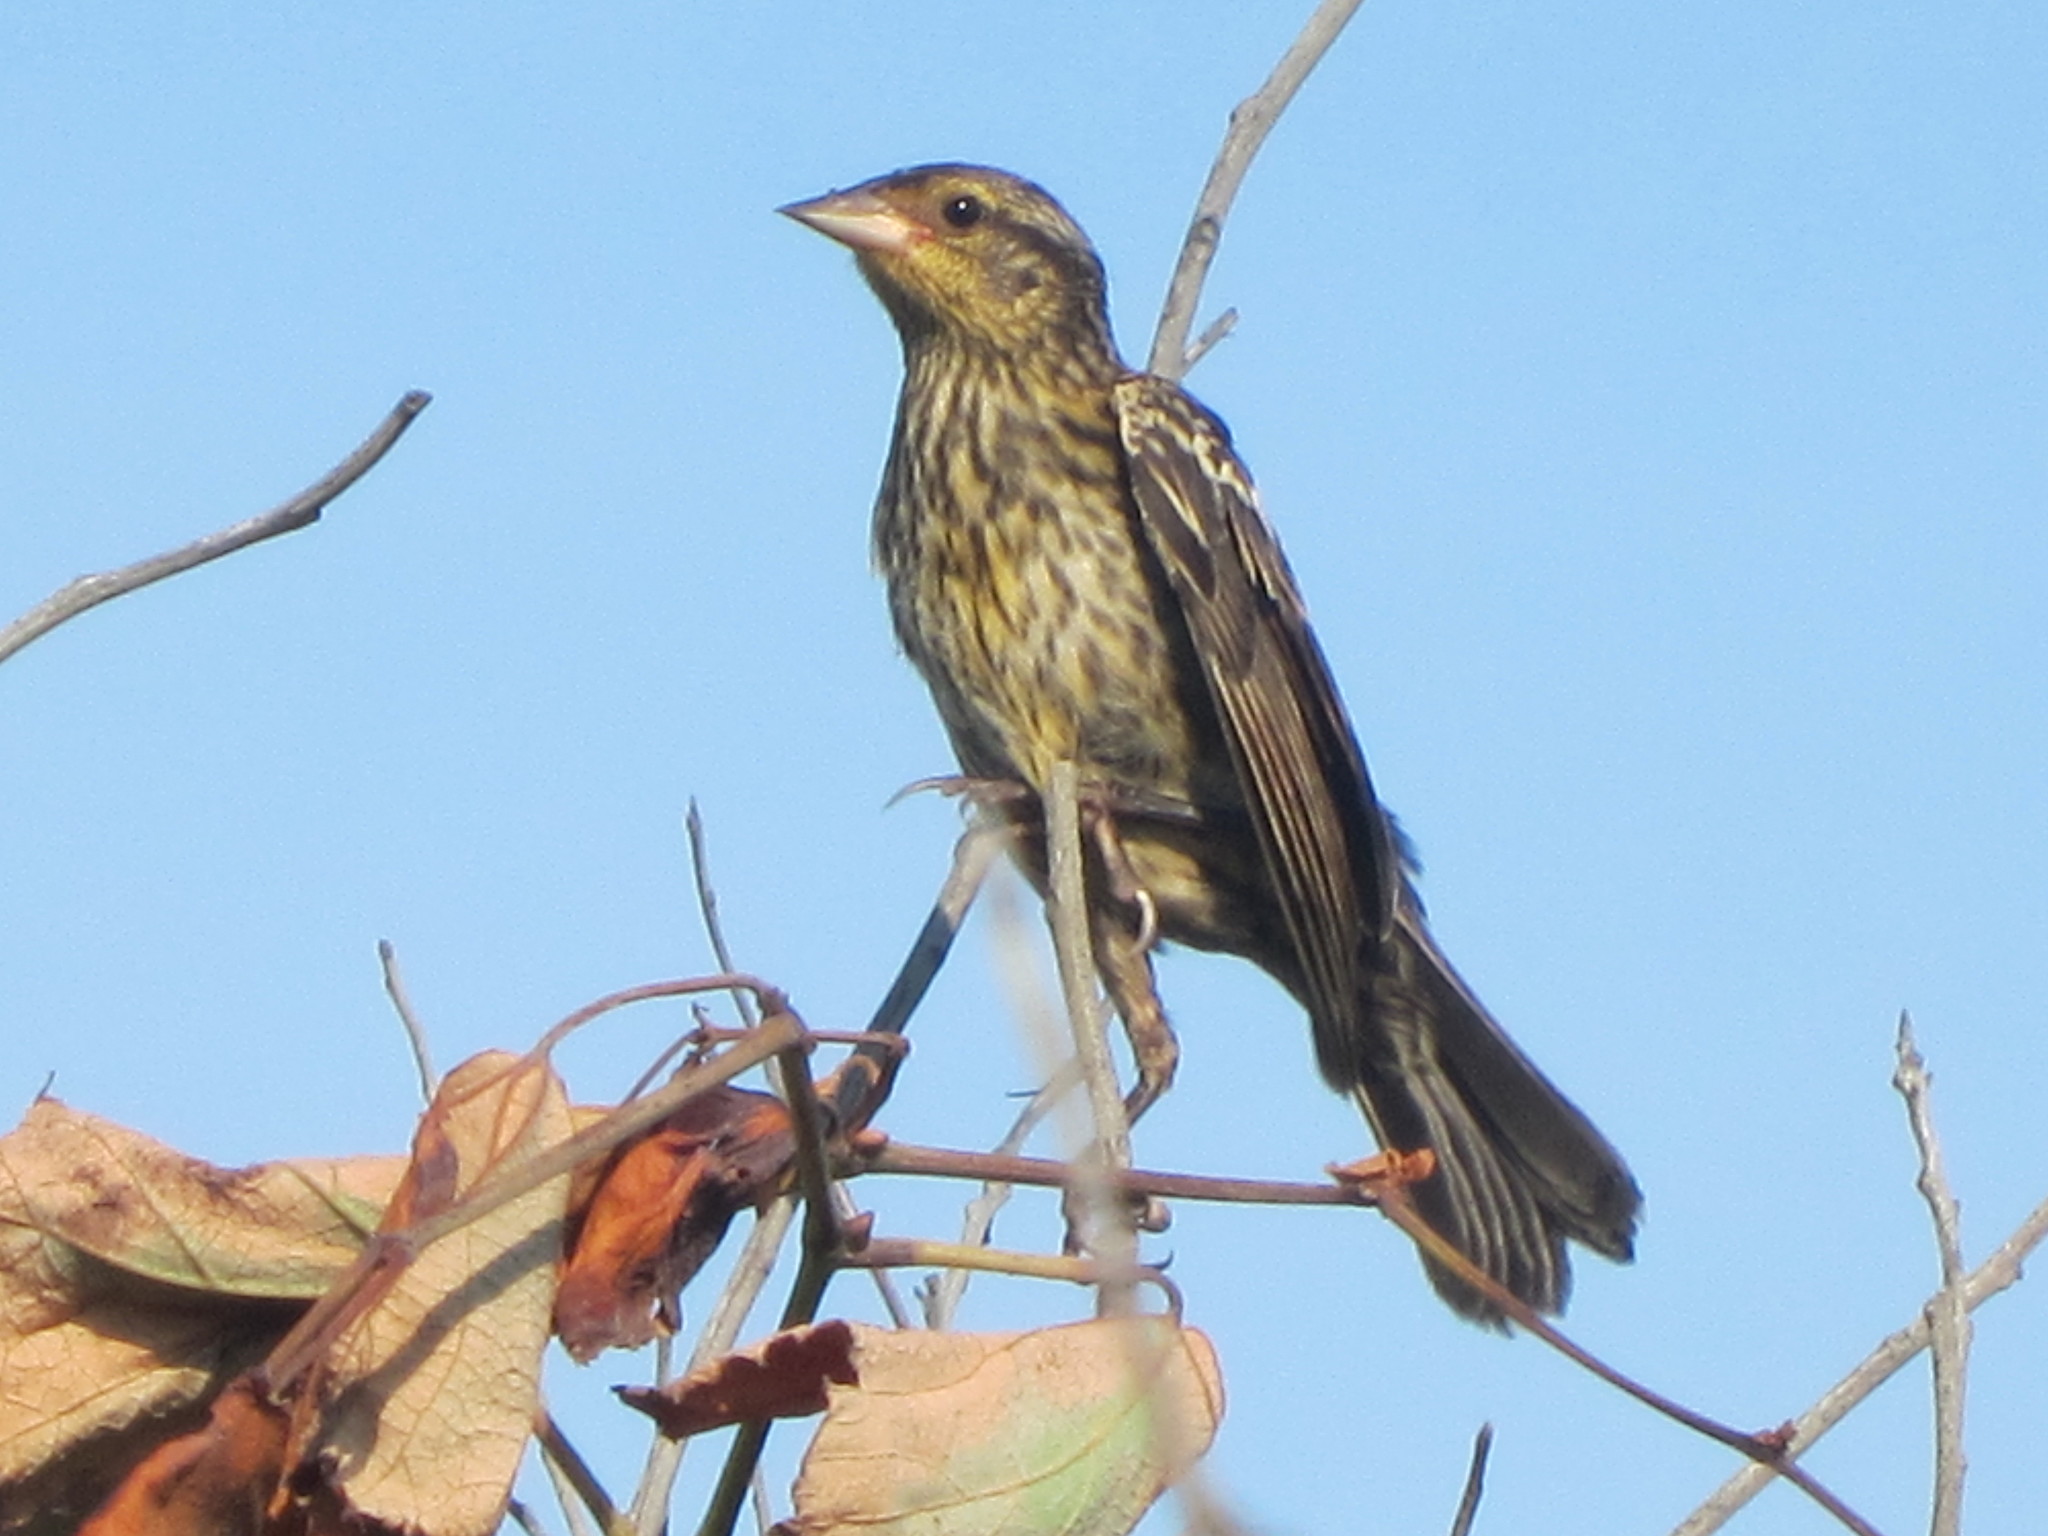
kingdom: Animalia
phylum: Chordata
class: Aves
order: Passeriformes
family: Icteridae
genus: Agelaius
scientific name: Agelaius phoeniceus
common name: Red-winged blackbird
